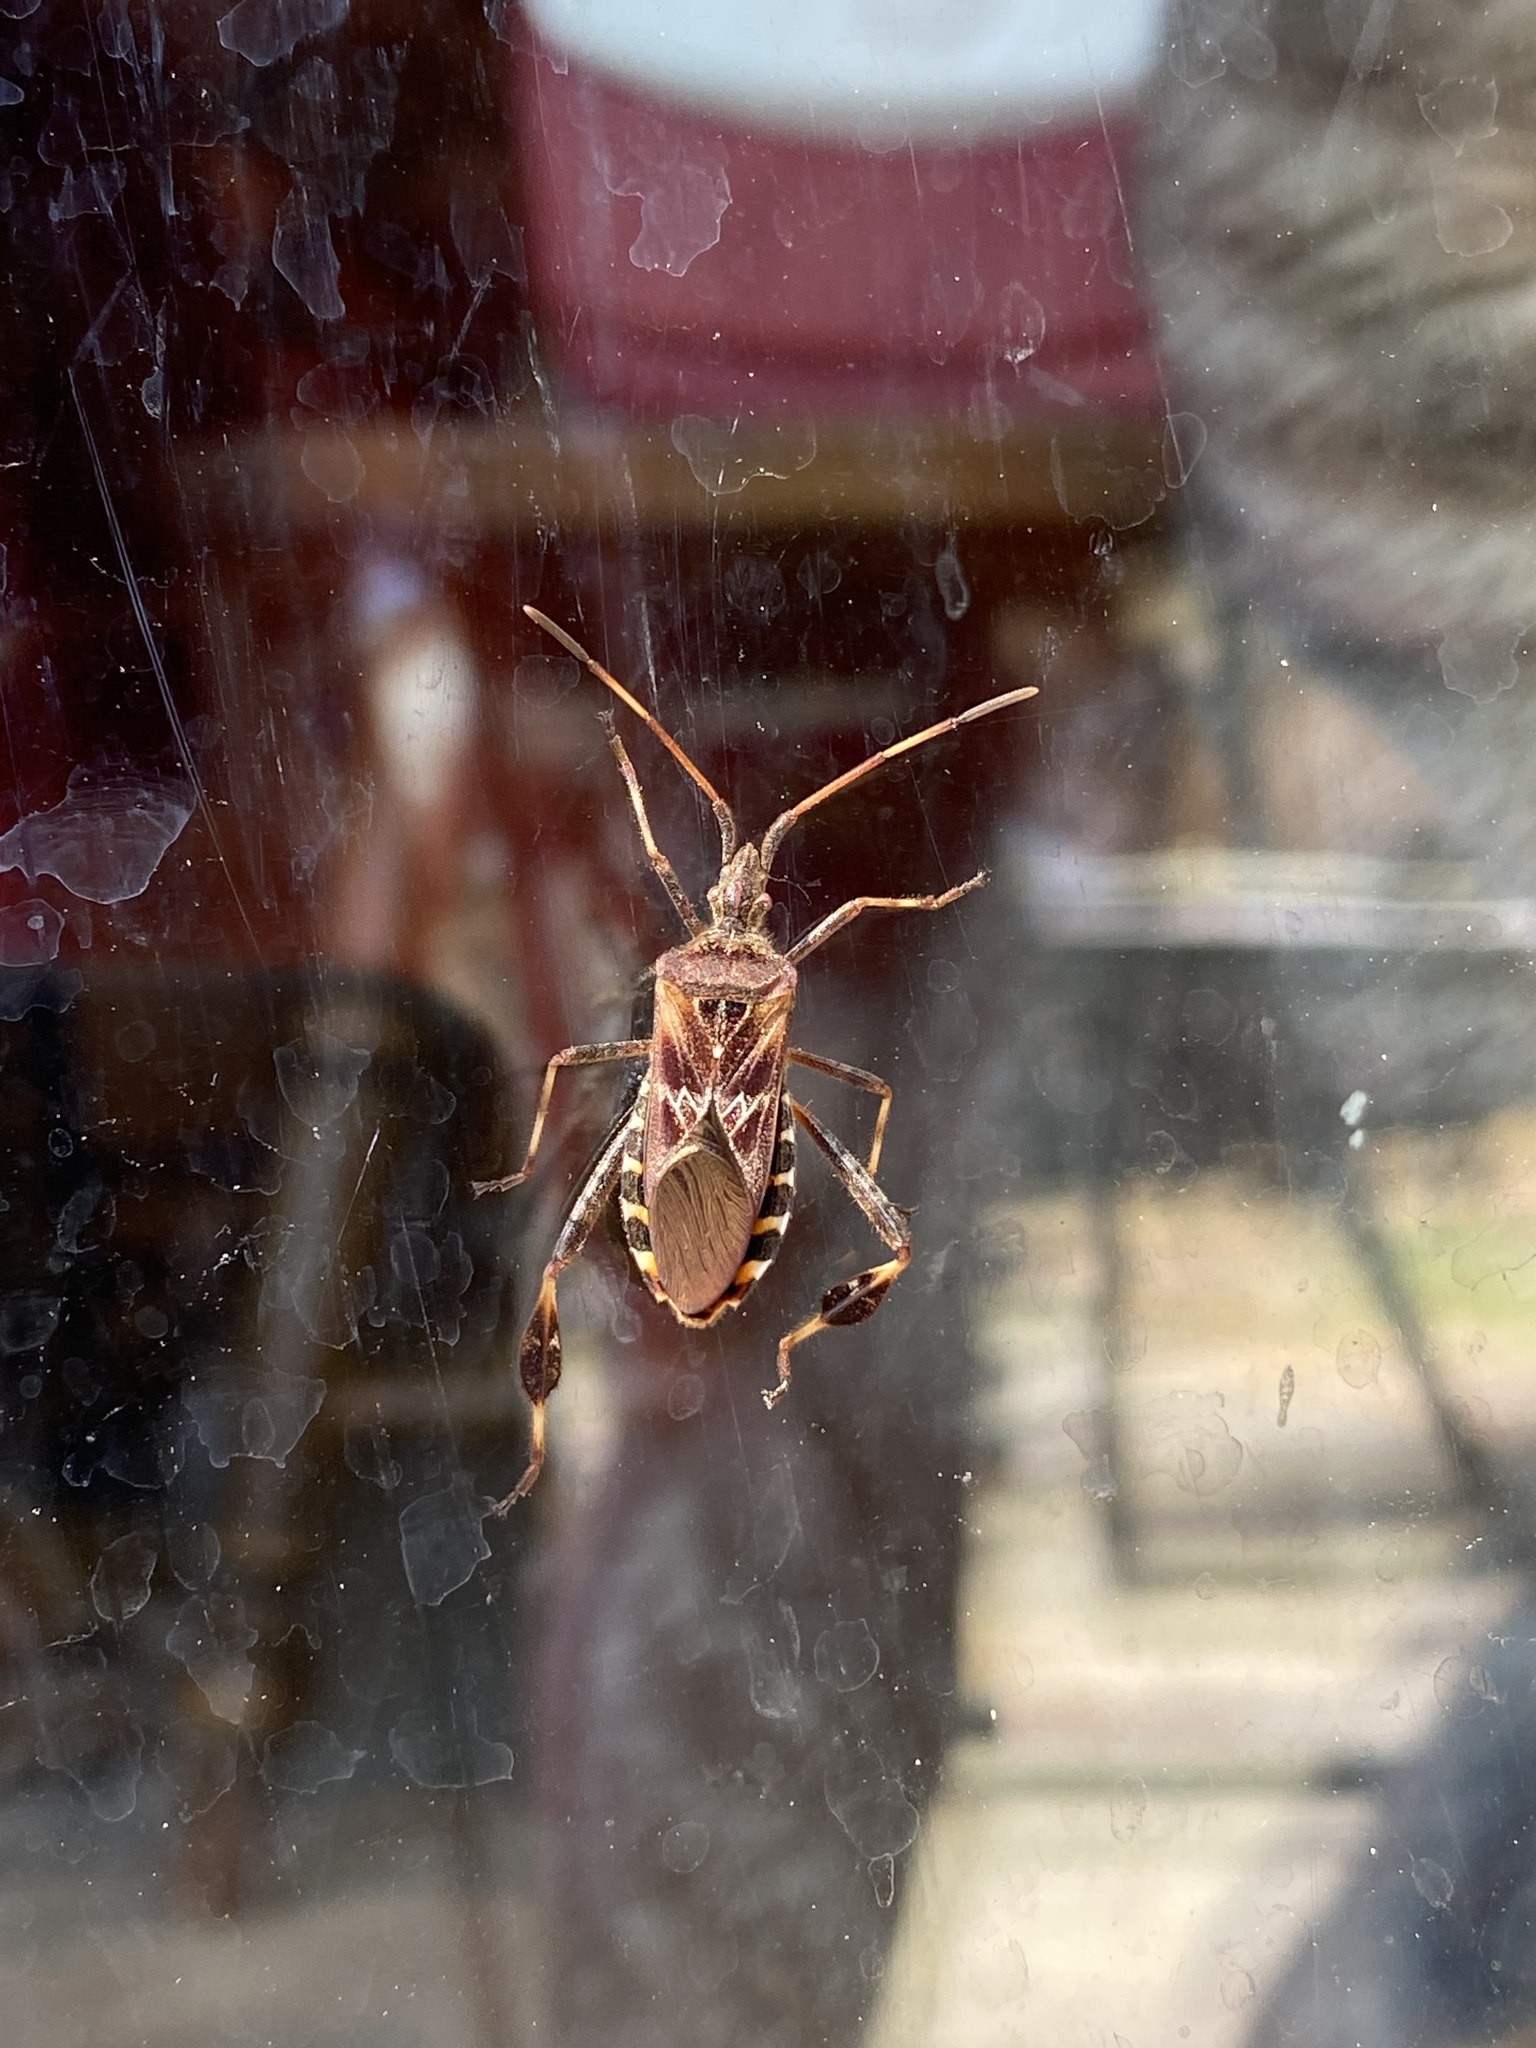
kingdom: Animalia
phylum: Arthropoda
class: Insecta
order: Hemiptera
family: Coreidae
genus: Leptoglossus
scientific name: Leptoglossus occidentalis
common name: Western conifer-seed bug
